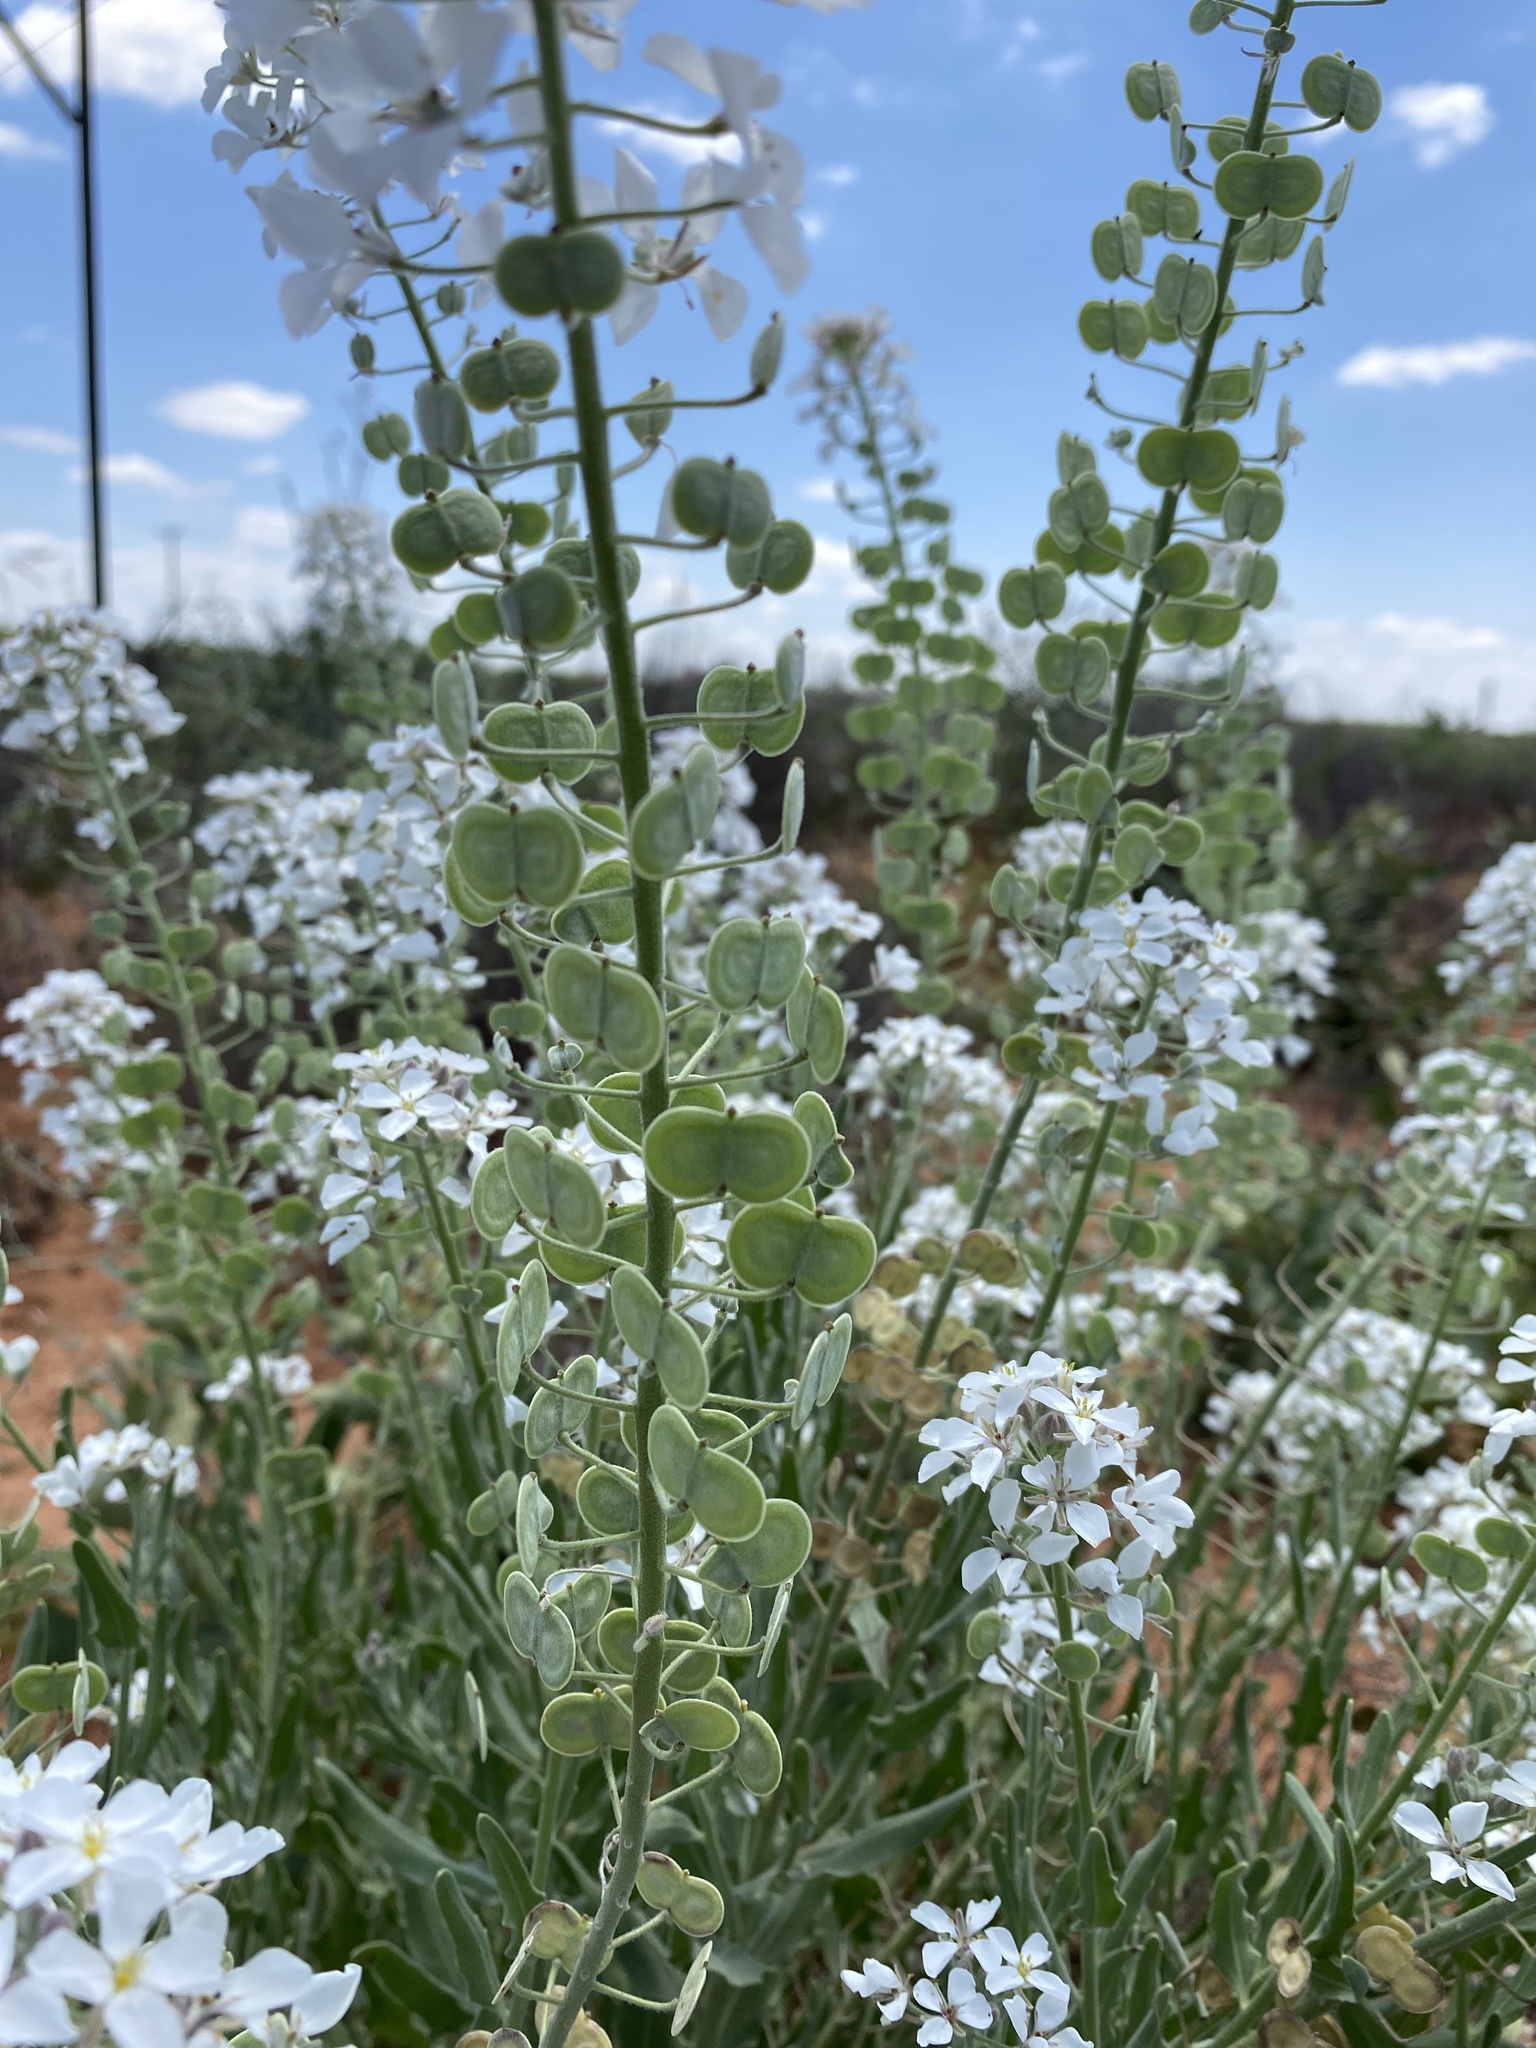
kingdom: Plantae
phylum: Tracheophyta
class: Magnoliopsida
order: Brassicales
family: Brassicaceae
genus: Dimorphocarpa
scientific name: Dimorphocarpa wislizenii
